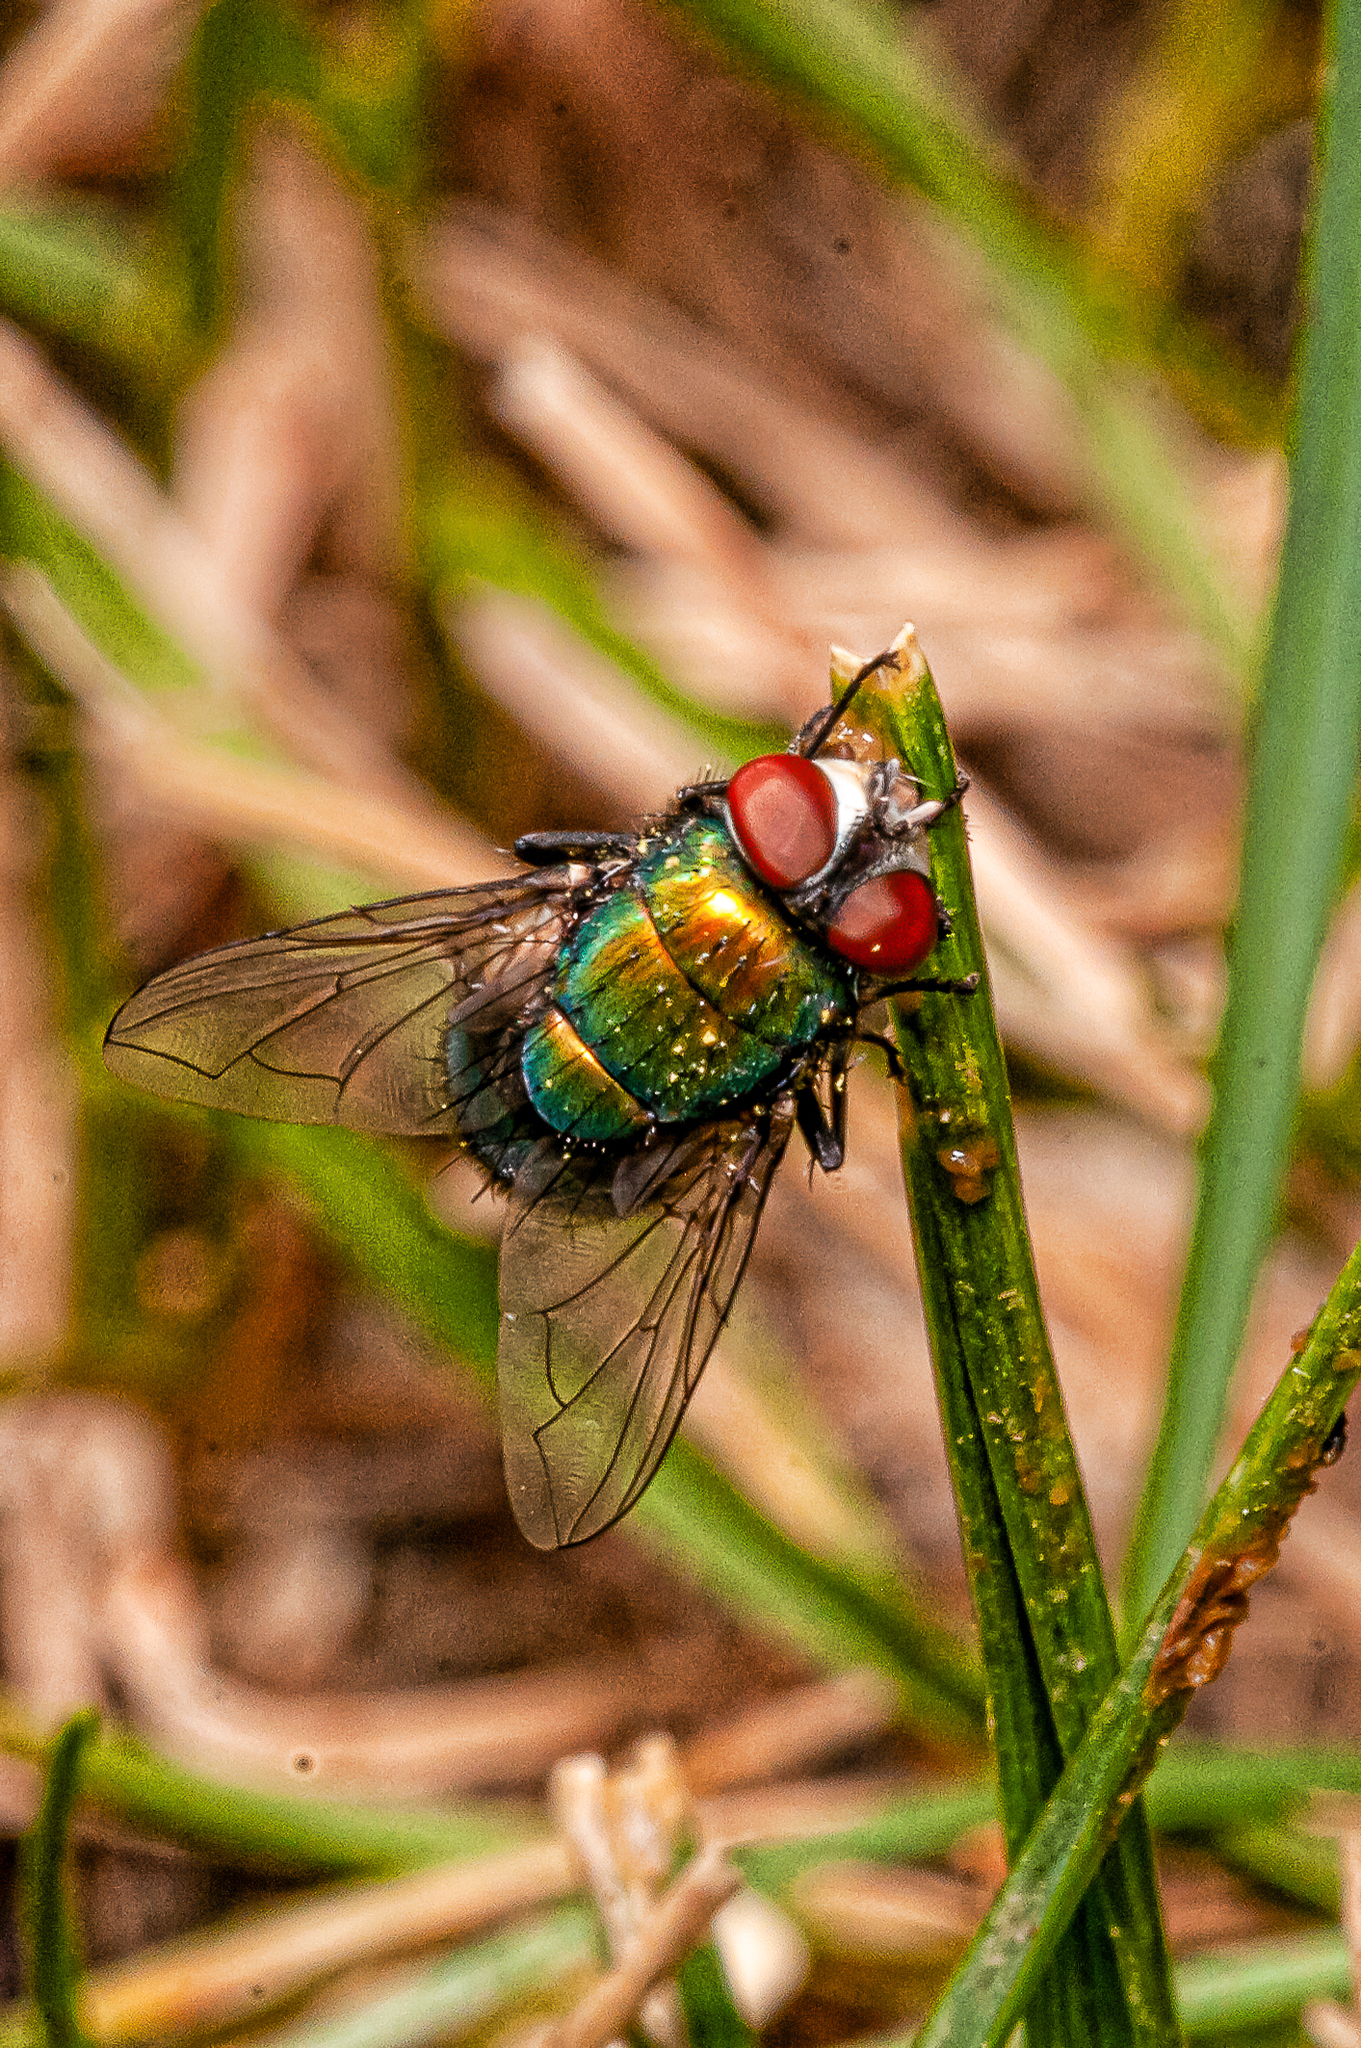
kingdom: Animalia
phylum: Arthropoda
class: Insecta
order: Diptera
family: Calliphoridae
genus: Lucilia
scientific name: Lucilia sericata
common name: Blow fly
